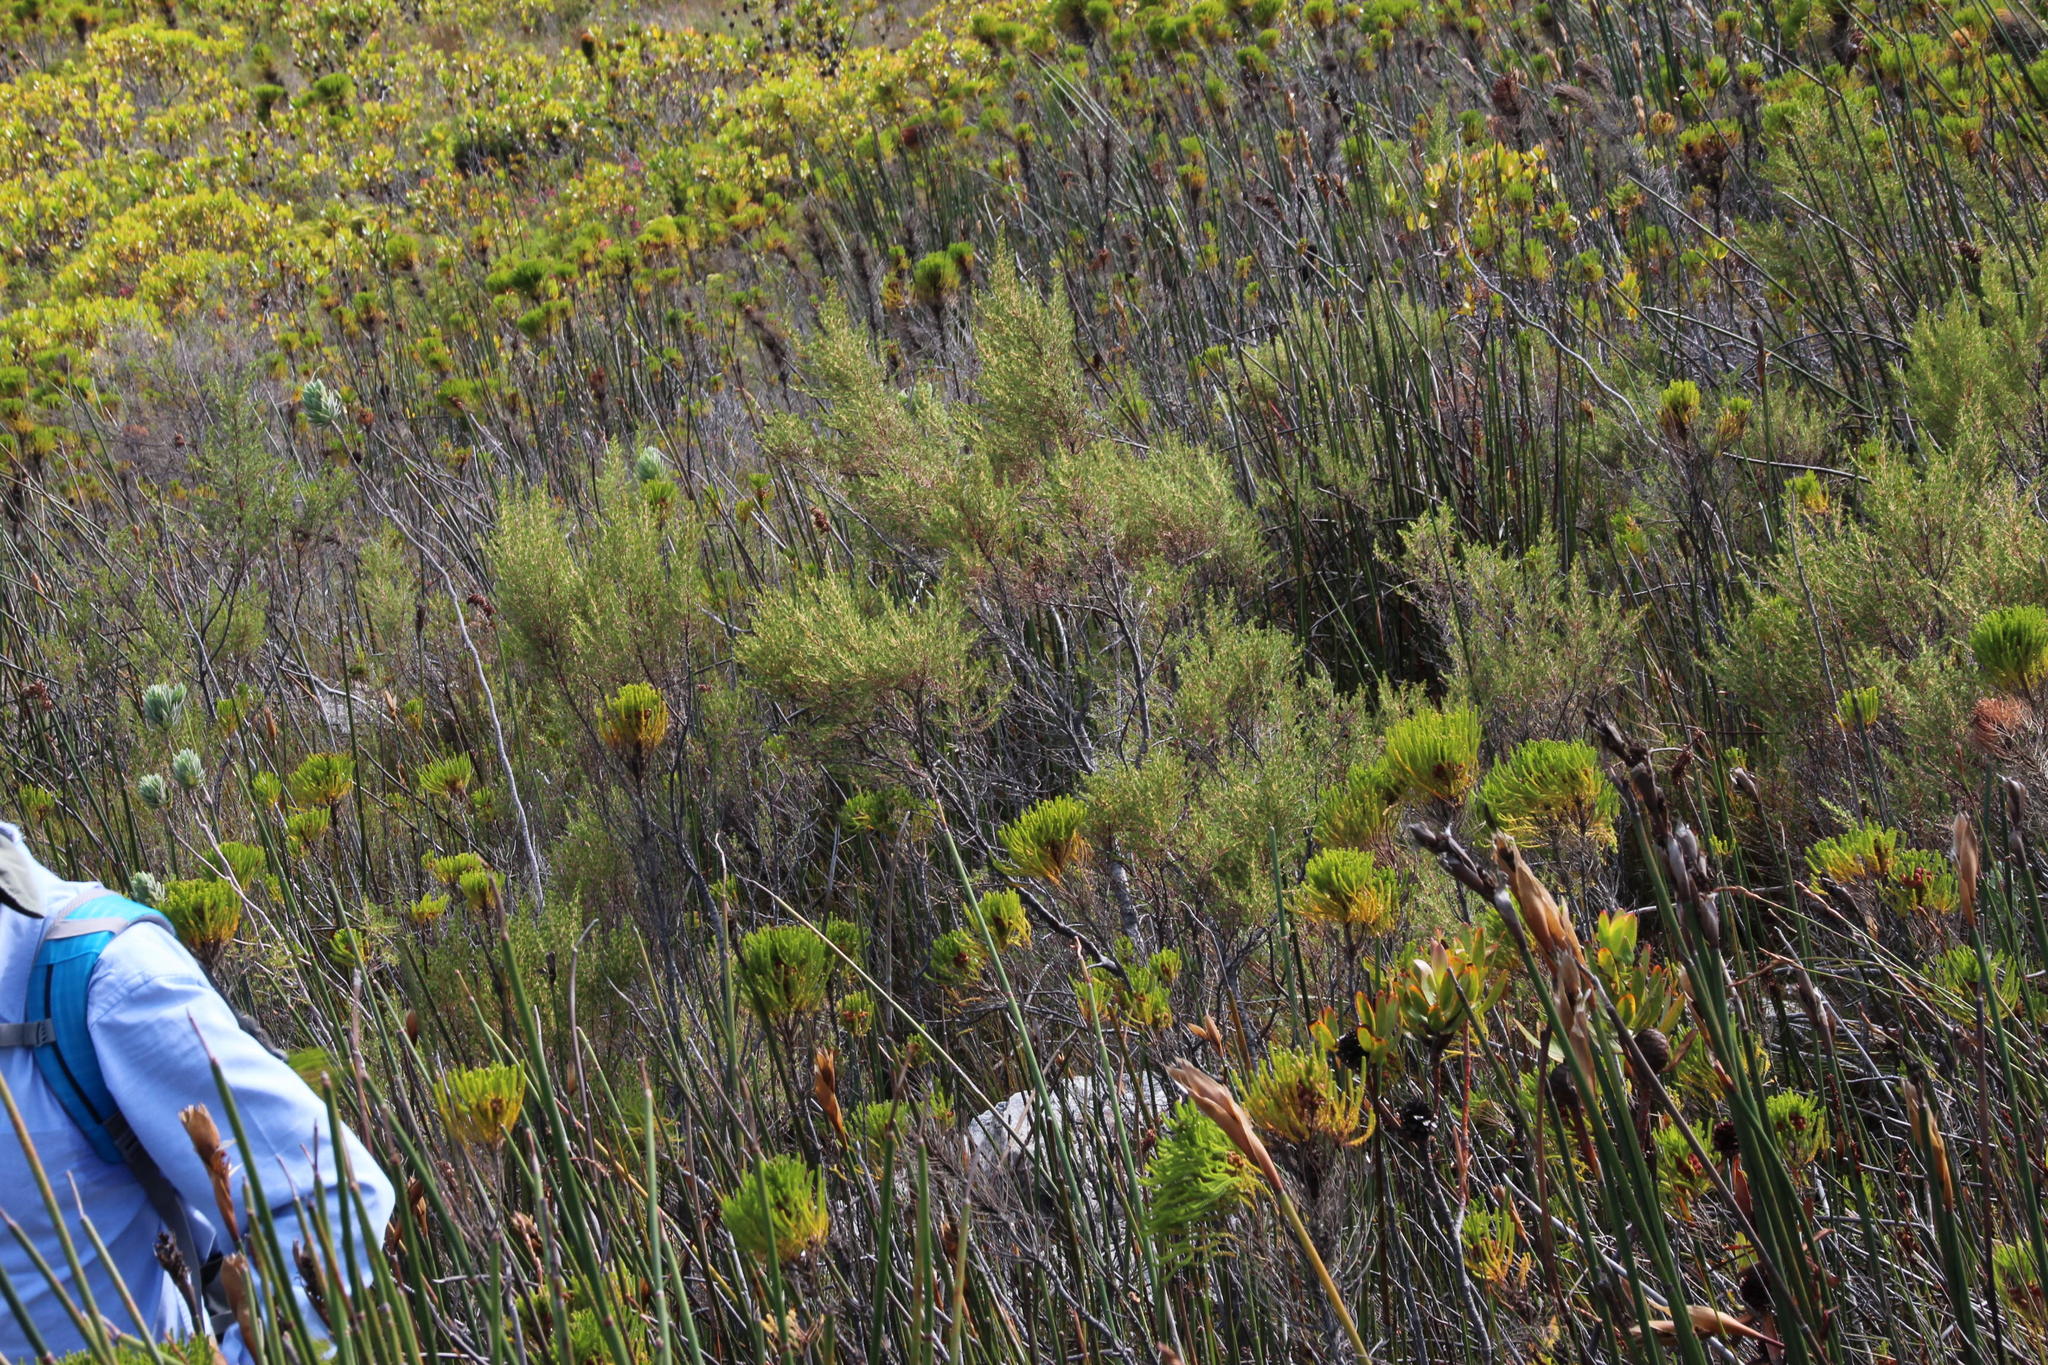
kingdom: Plantae
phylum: Tracheophyta
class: Magnoliopsida
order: Cornales
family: Grubbiaceae
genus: Grubbia
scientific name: Grubbia rosmarinifolia
